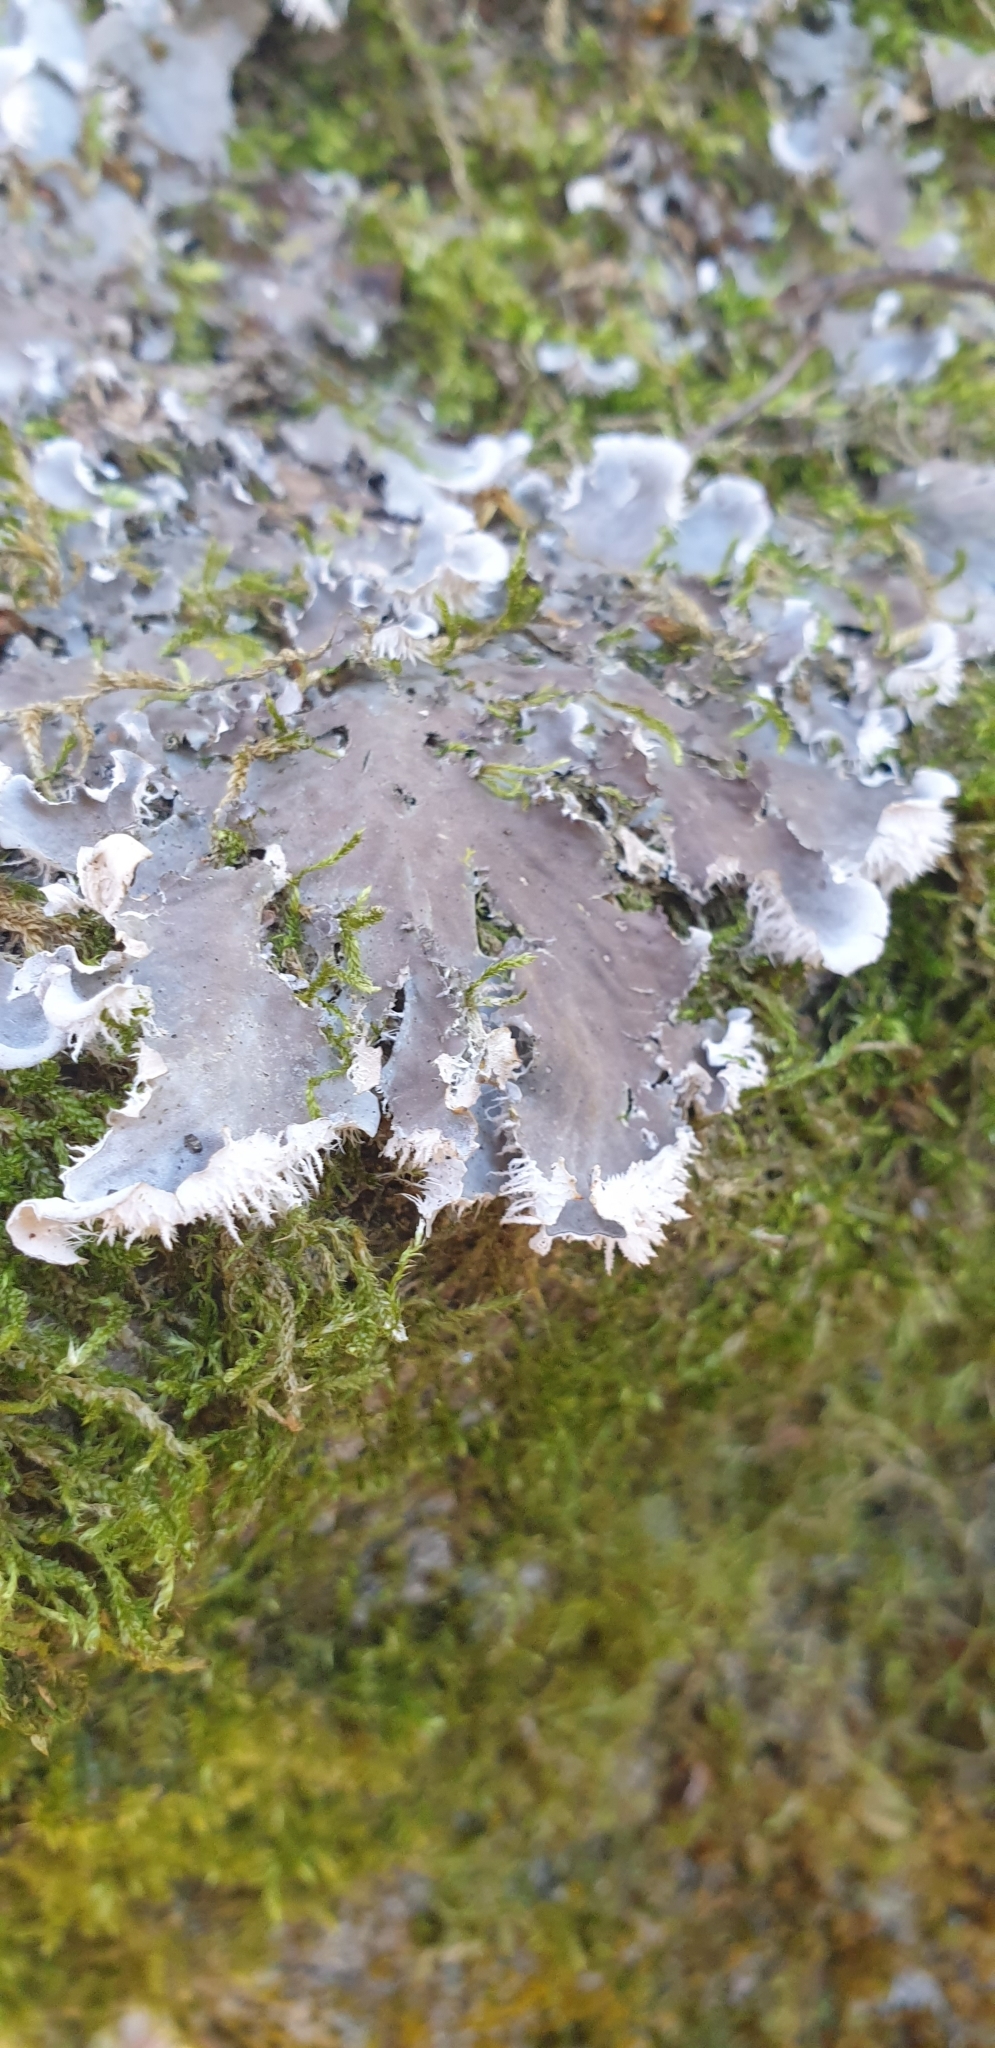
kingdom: Fungi
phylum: Ascomycota
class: Lecanoromycetes
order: Peltigerales
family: Peltigeraceae
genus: Peltigera
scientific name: Peltigera canina
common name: Dog pelt lichen
